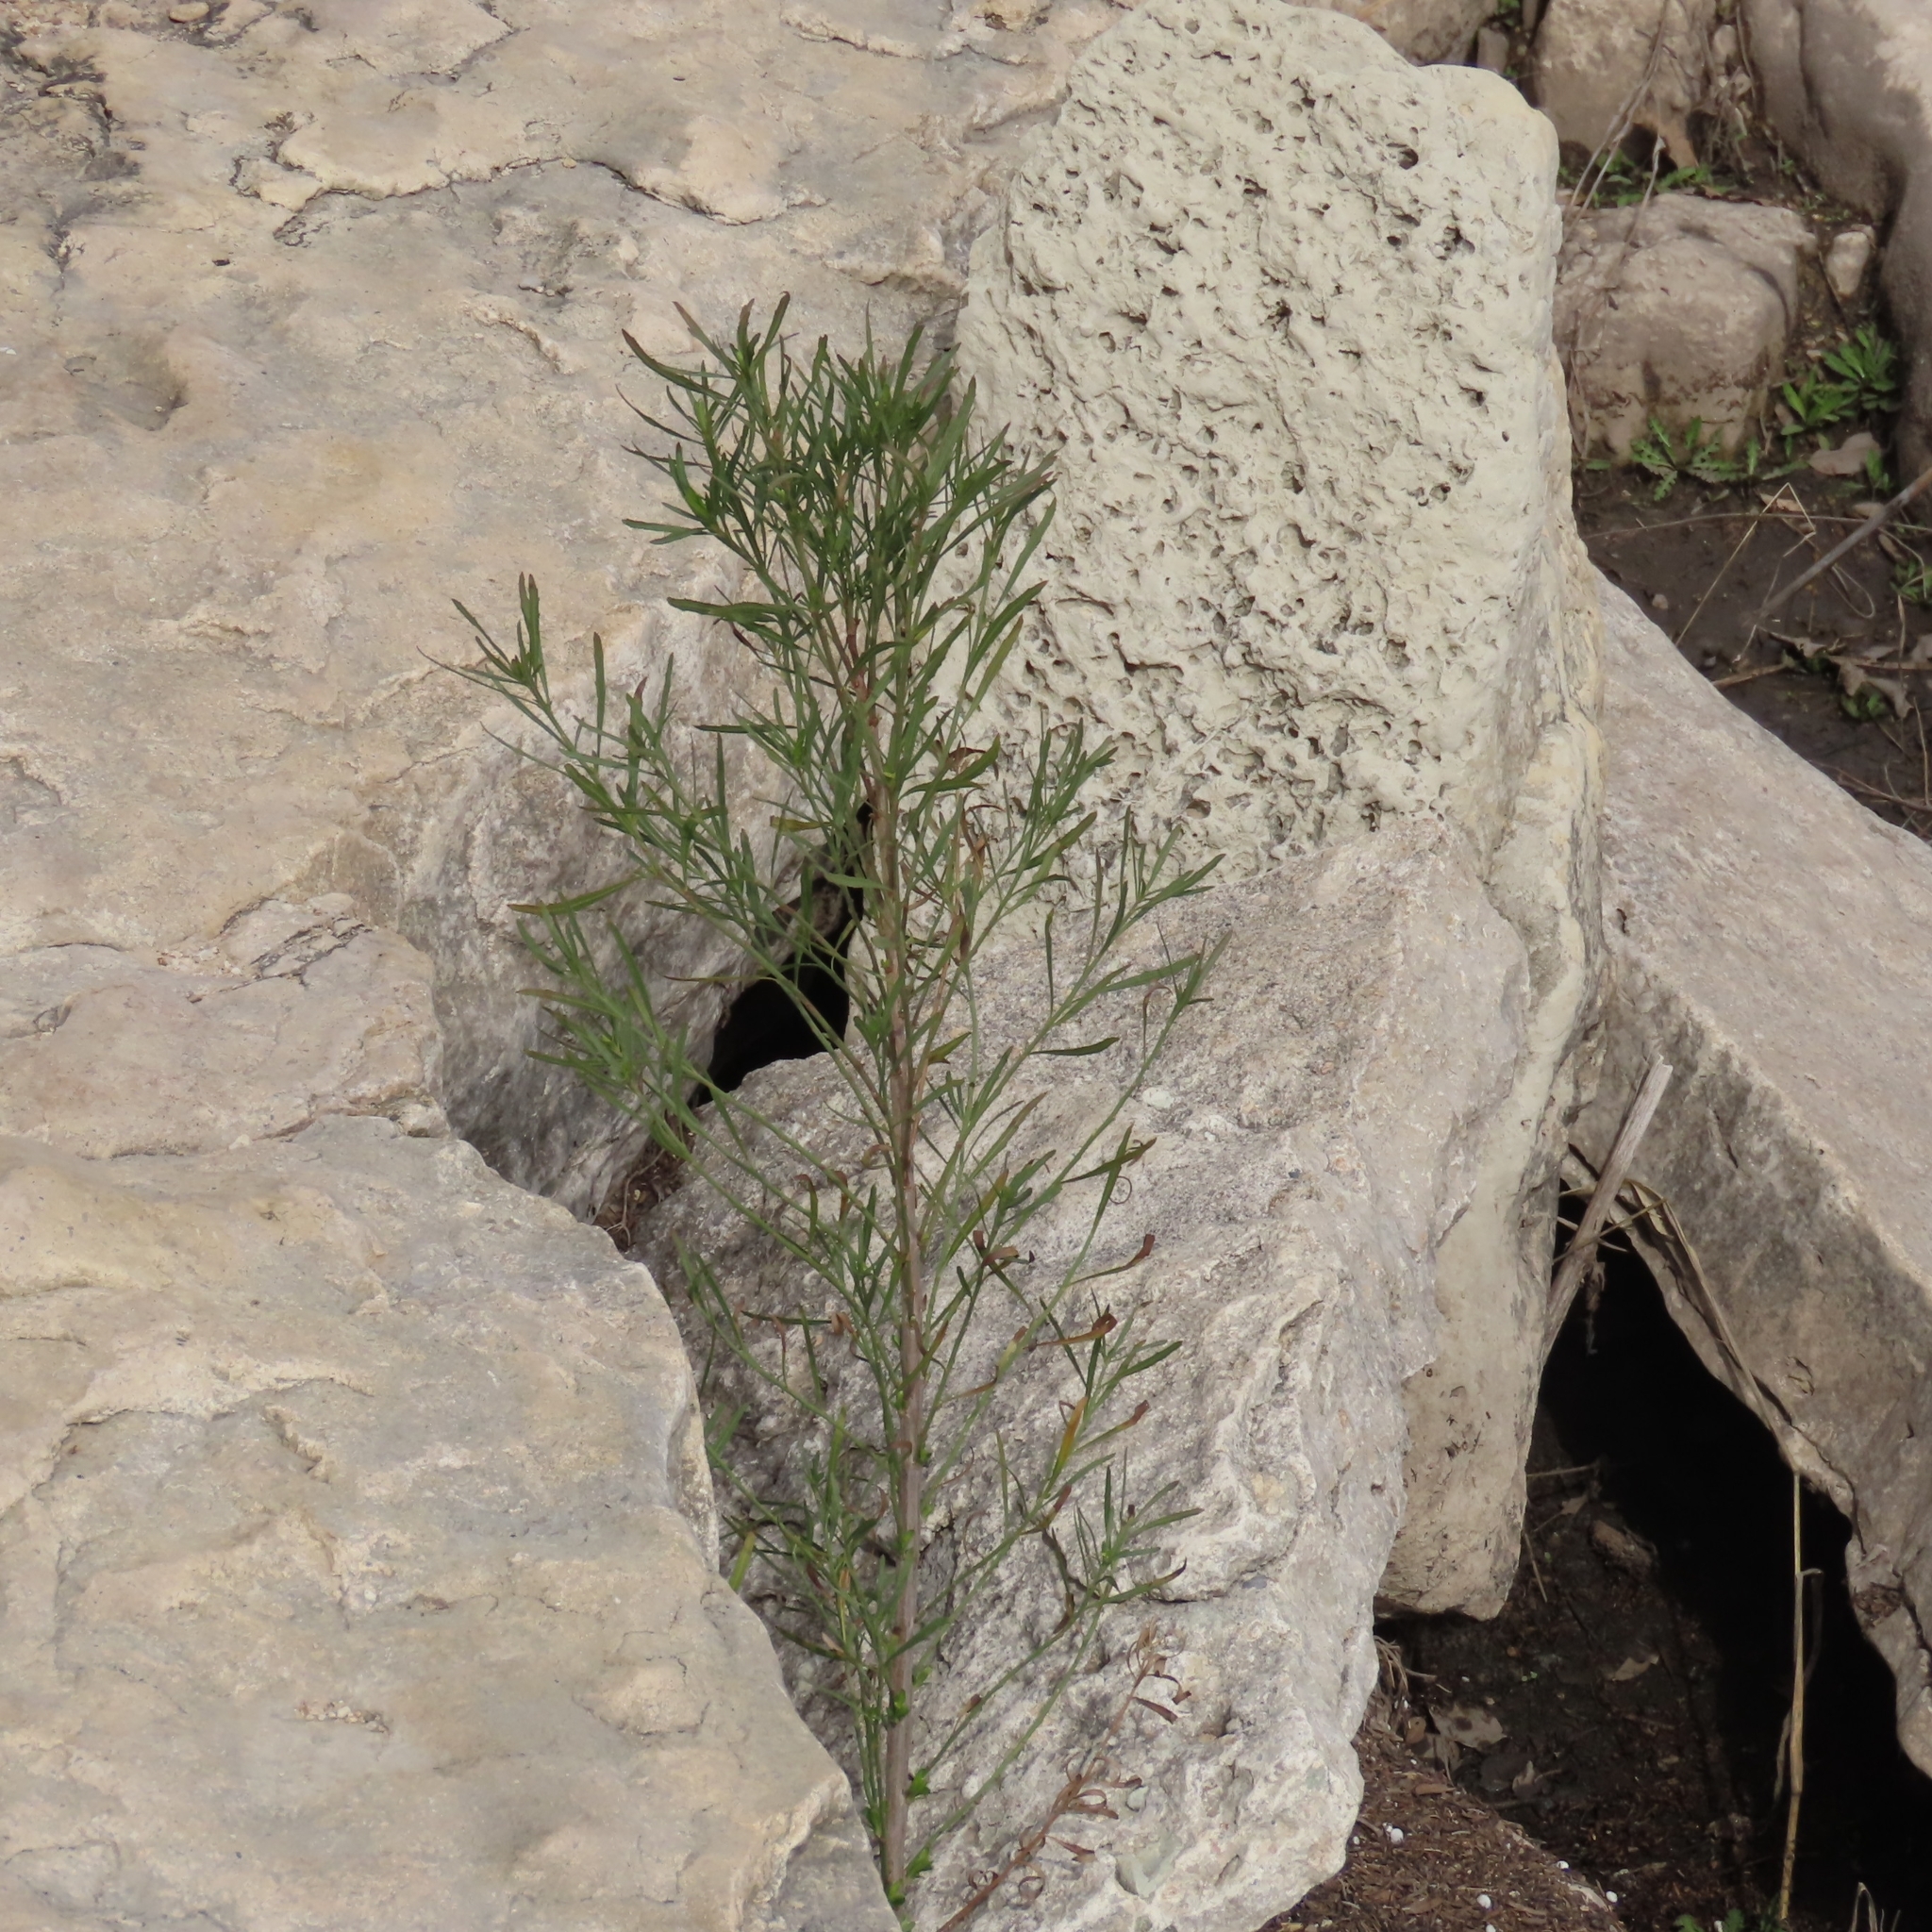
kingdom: Plantae
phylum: Tracheophyta
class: Magnoliopsida
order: Asterales
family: Asteraceae
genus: Baccharis
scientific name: Baccharis neglecta
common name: Roosevelt-weed
